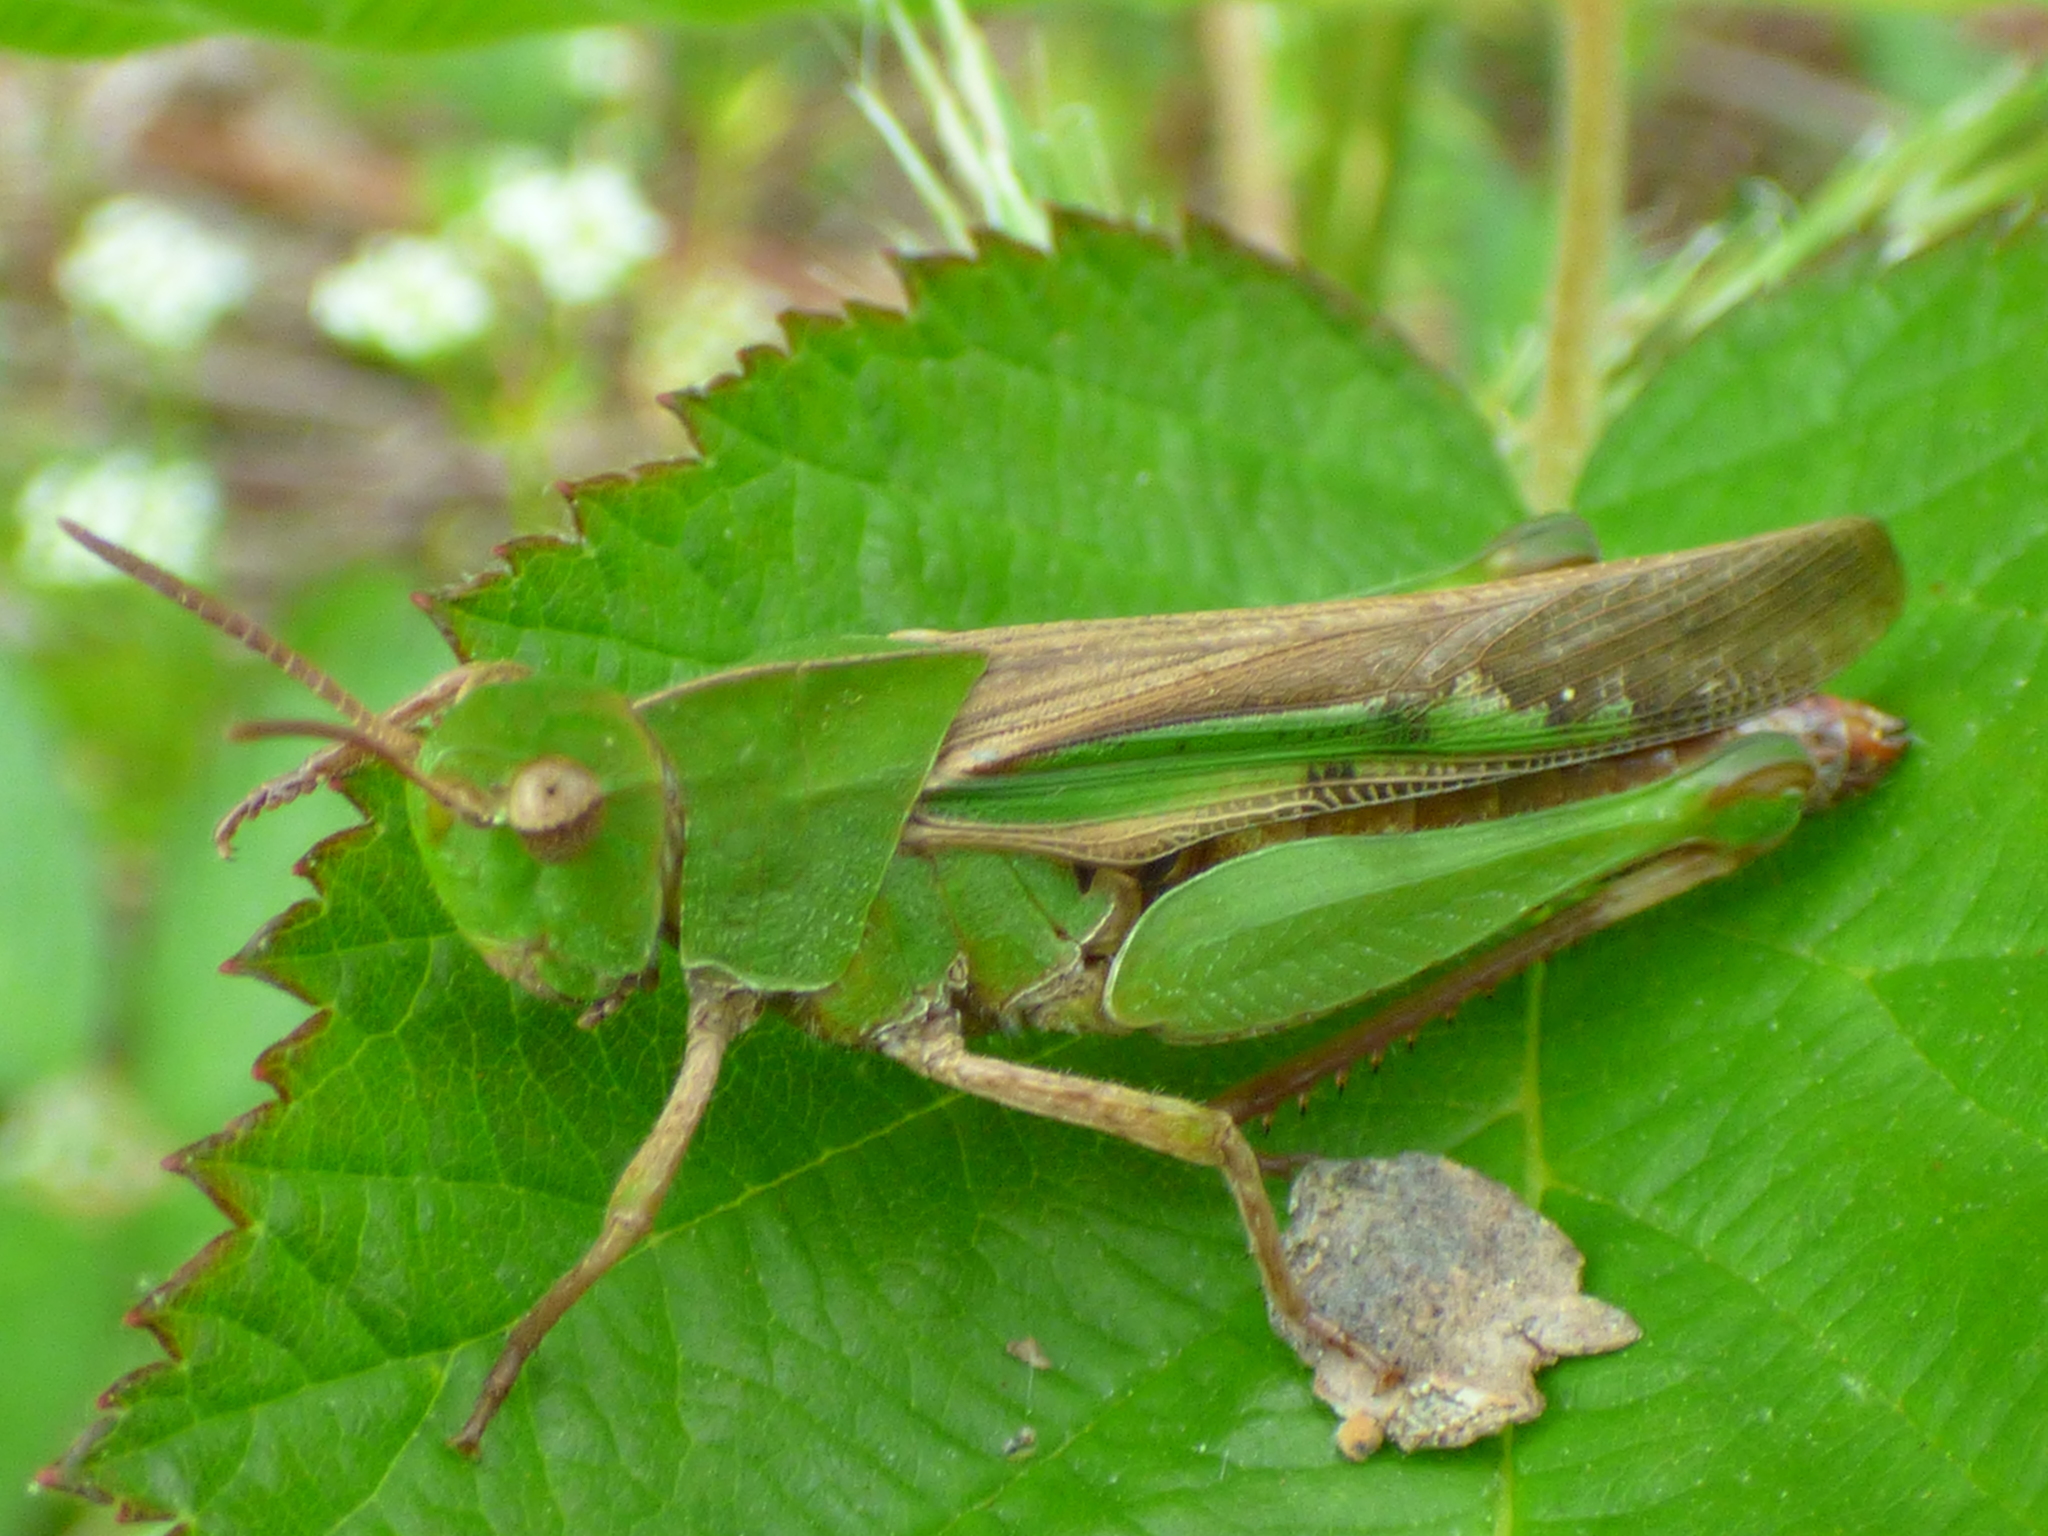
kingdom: Animalia
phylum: Arthropoda
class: Insecta
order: Orthoptera
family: Acrididae
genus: Chortophaga
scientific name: Chortophaga viridifasciata
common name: Green-striped grasshopper
